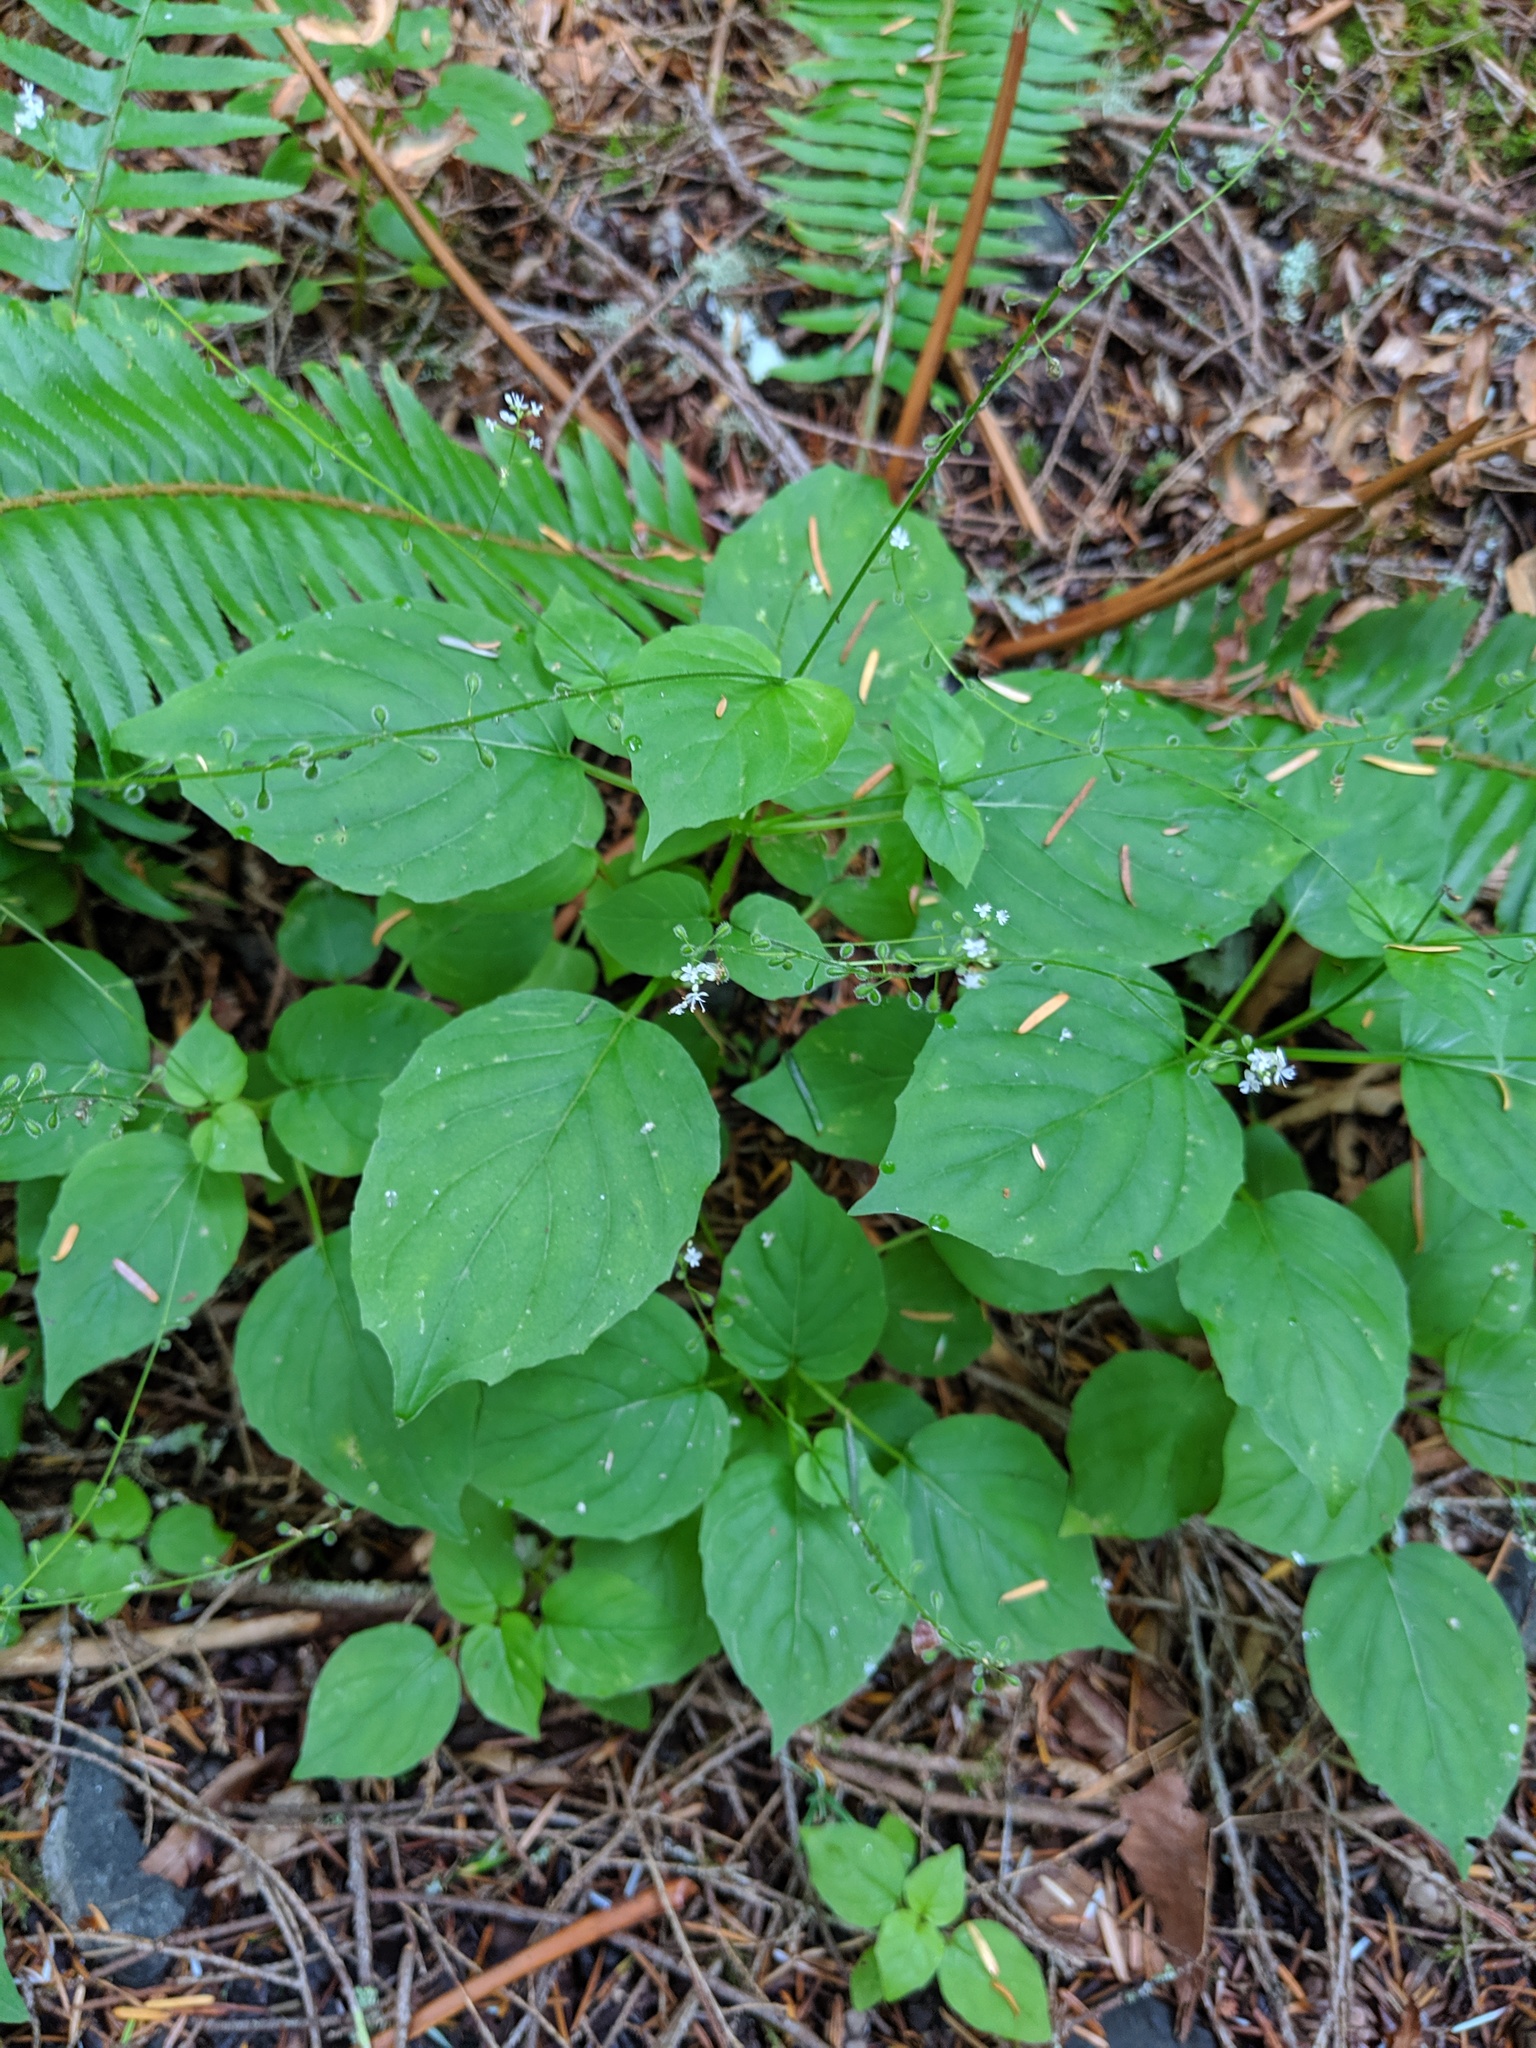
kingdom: Plantae
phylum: Tracheophyta
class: Magnoliopsida
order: Myrtales
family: Onagraceae
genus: Circaea
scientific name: Circaea alpina
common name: Alpine enchanter's-nightshade
